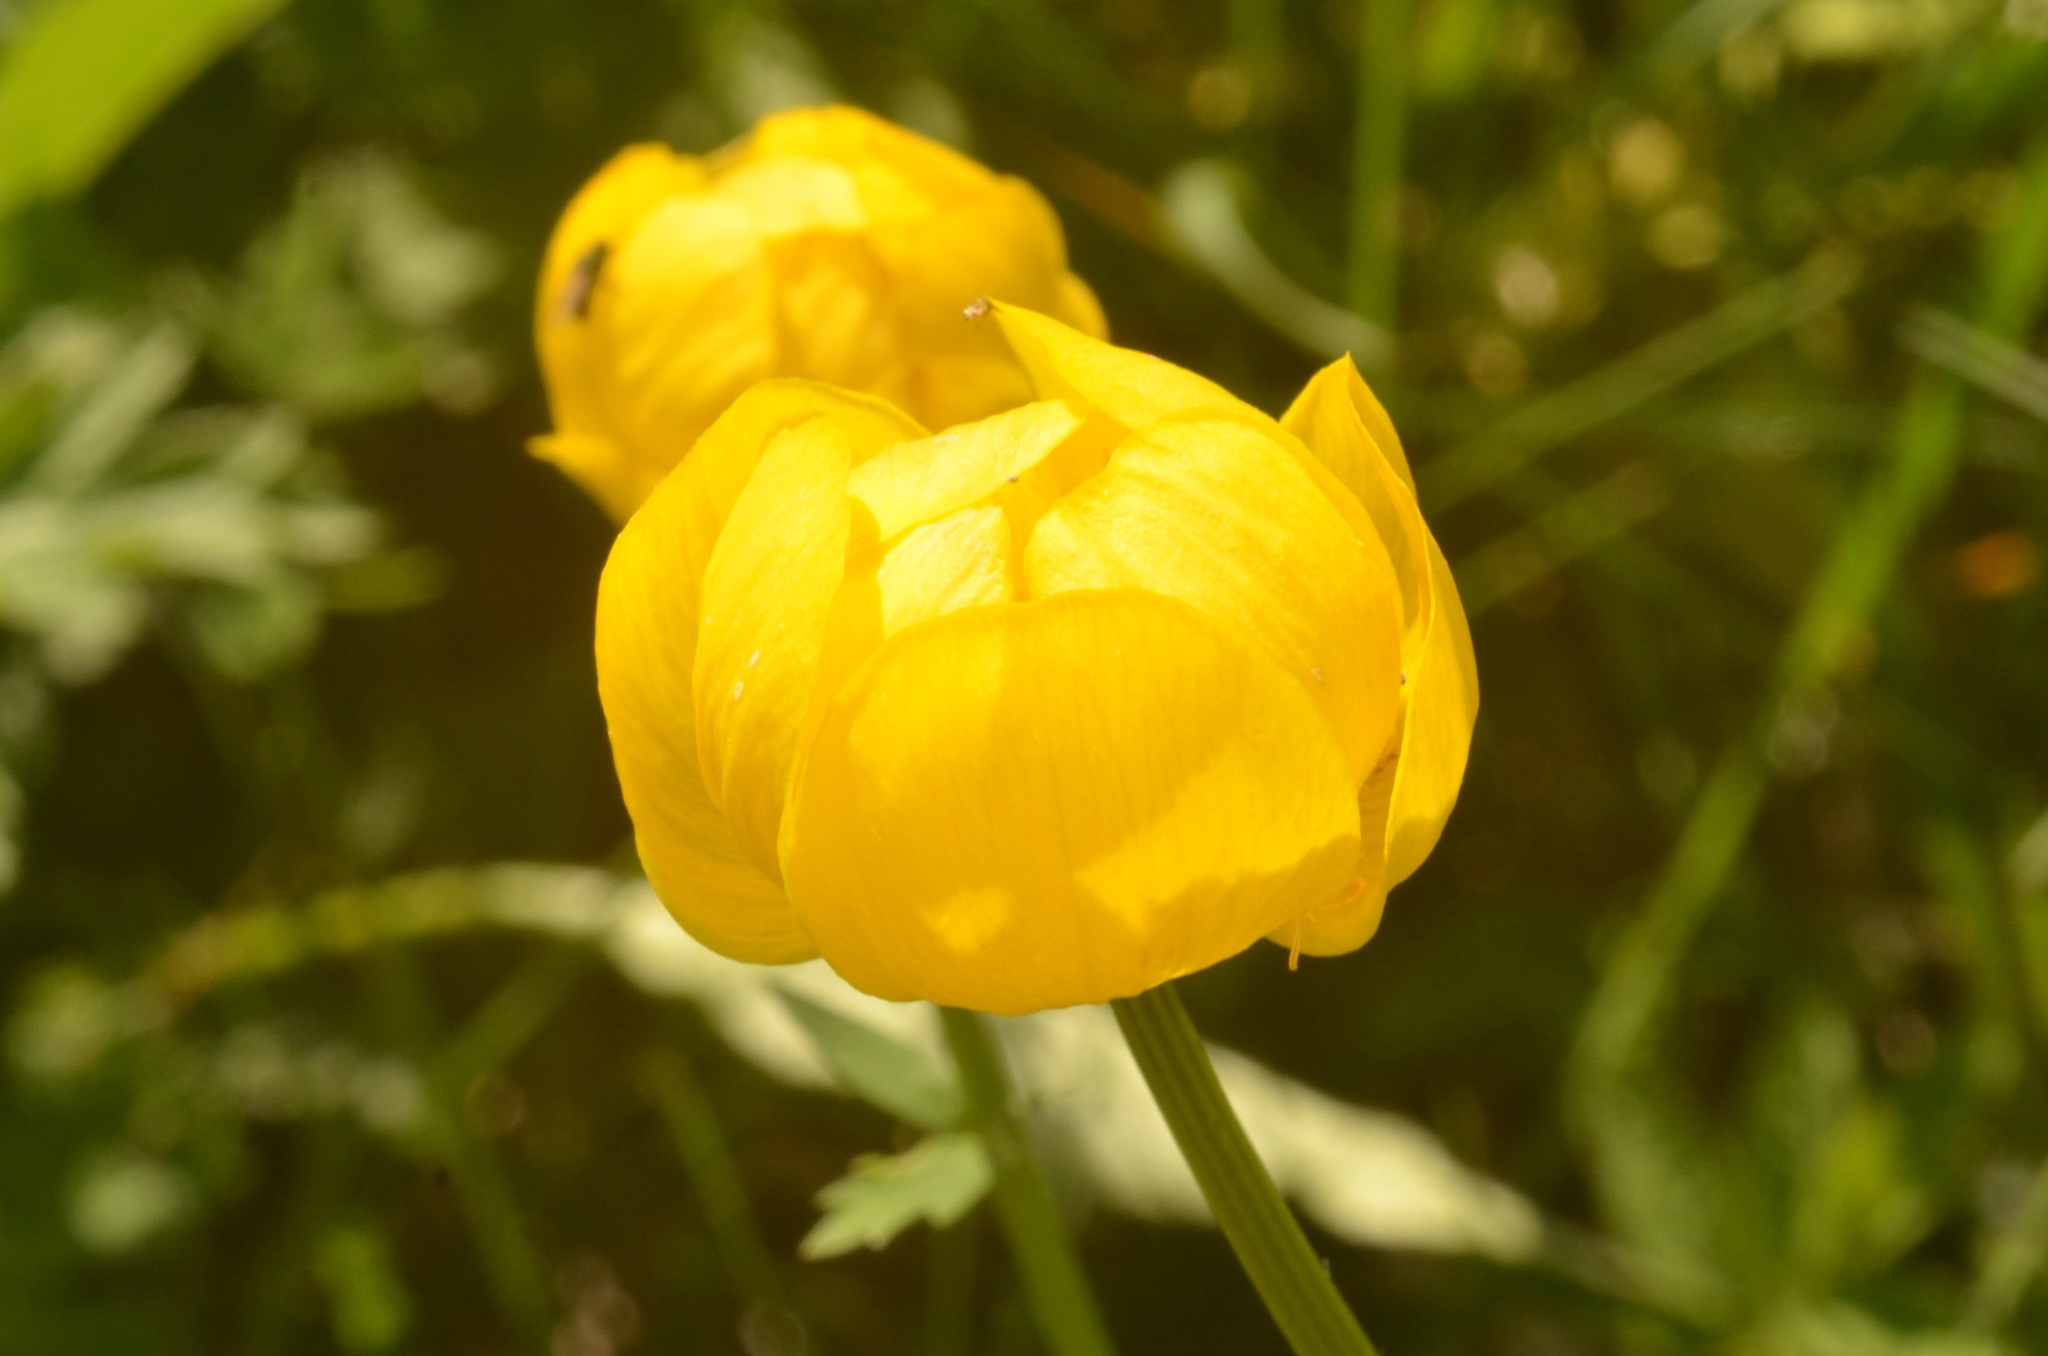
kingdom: Plantae
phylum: Tracheophyta
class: Magnoliopsida
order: Ranunculales
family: Ranunculaceae
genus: Trollius
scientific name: Trollius europaeus
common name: European globeflower
